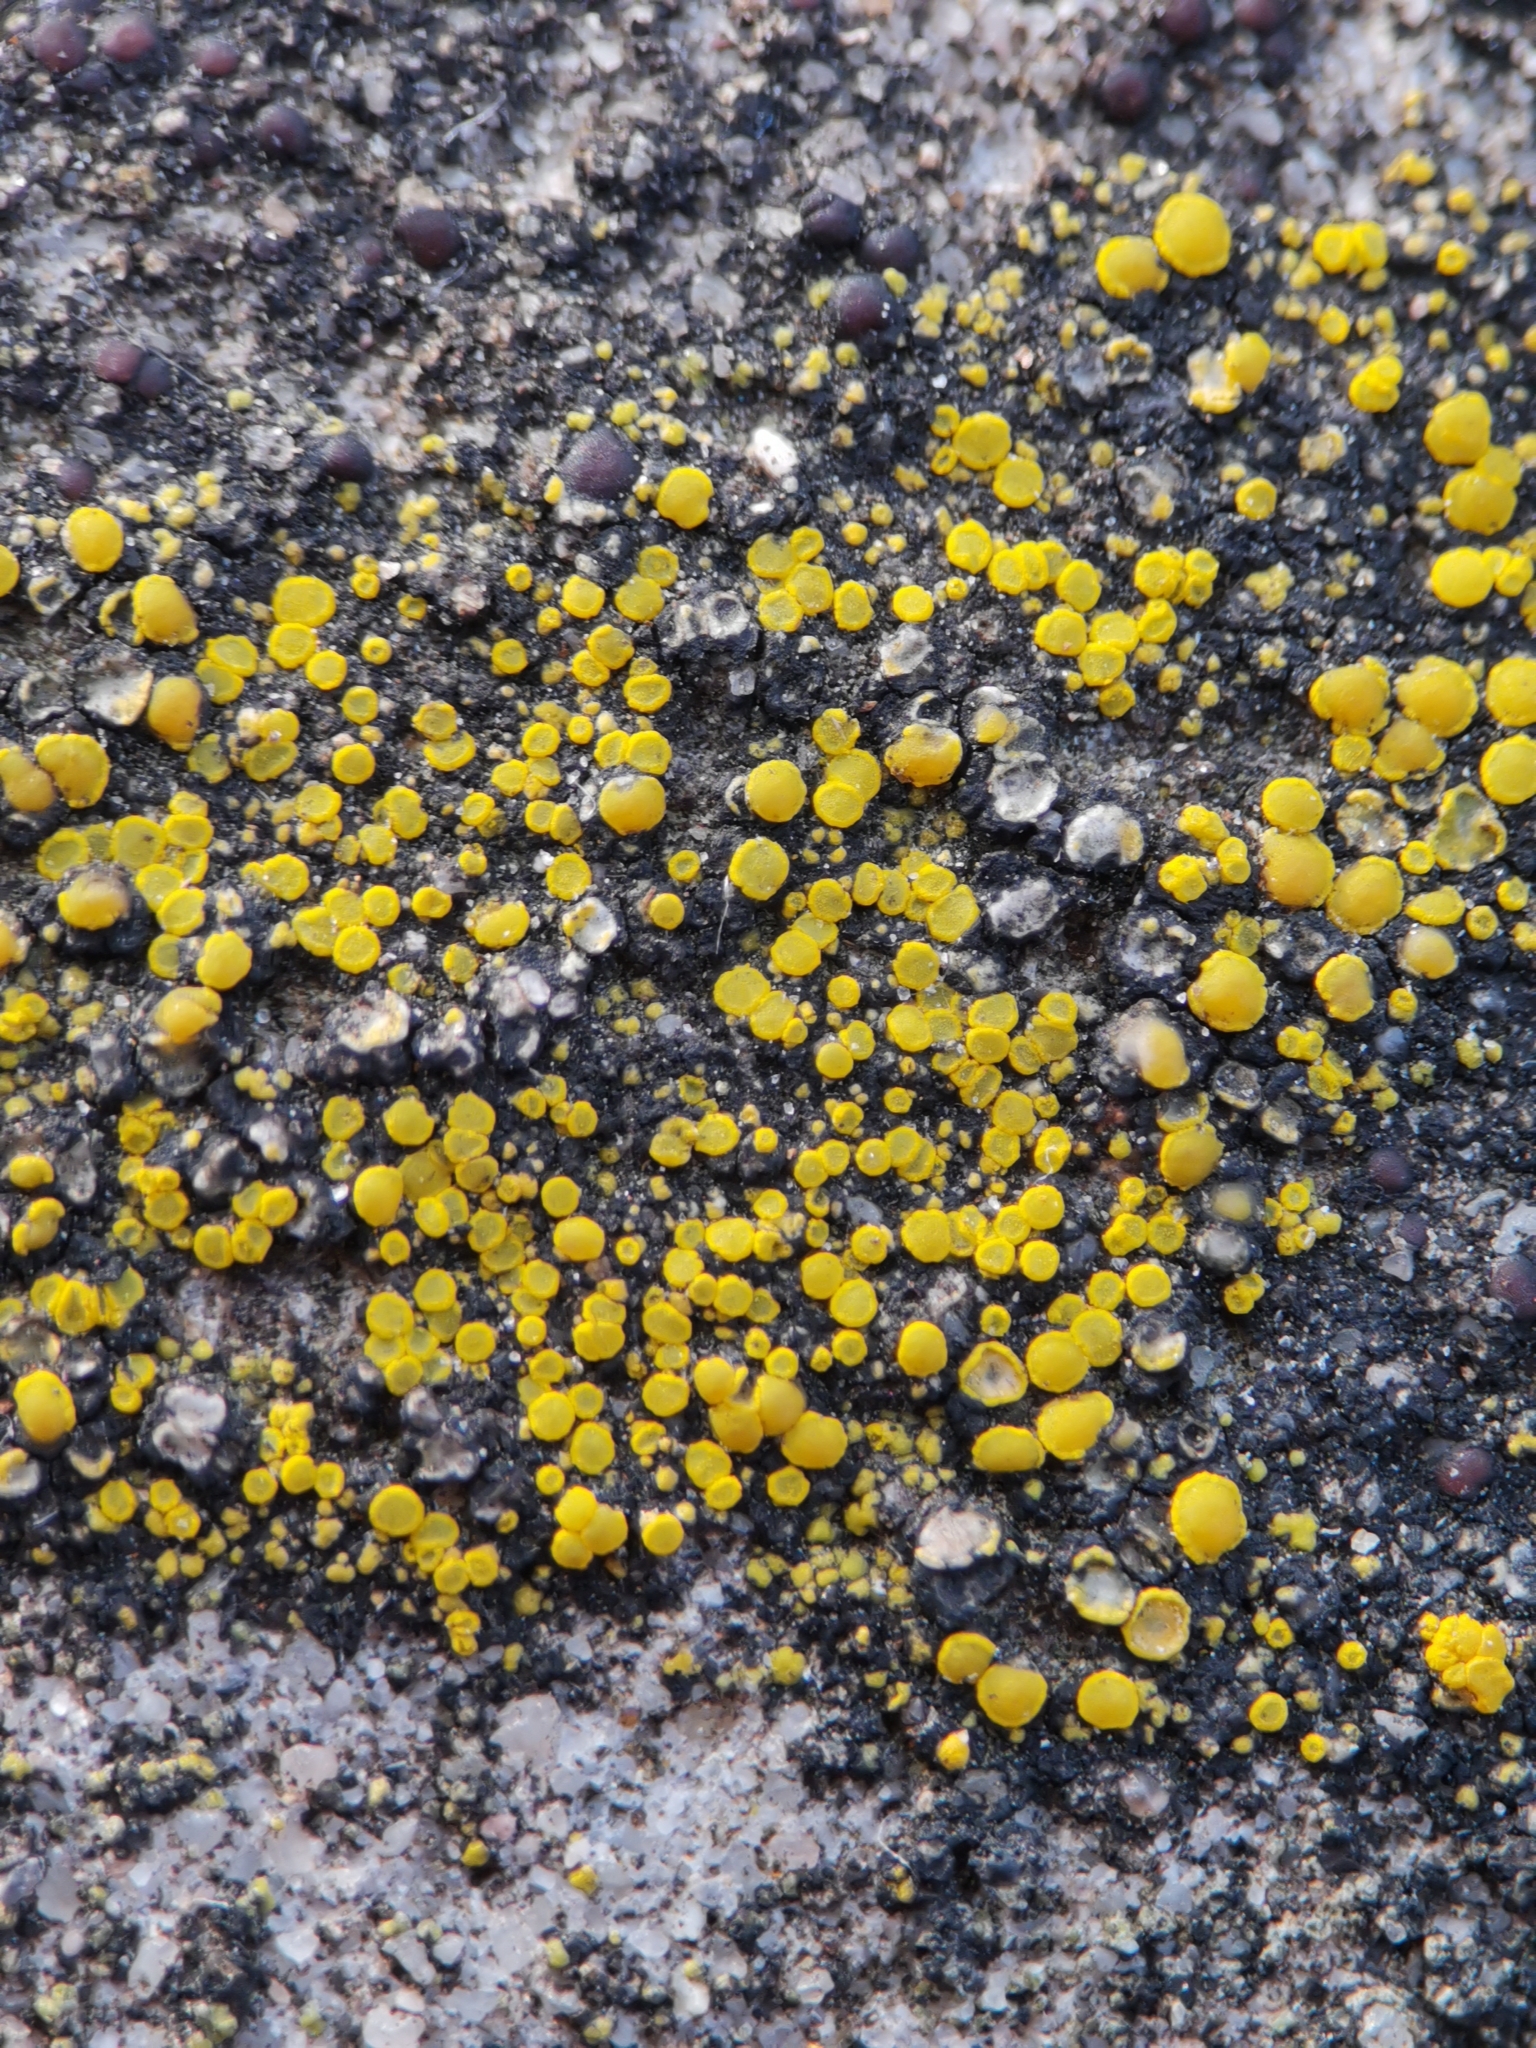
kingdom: Fungi
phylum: Ascomycota
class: Candelariomycetes
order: Candelariales
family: Candelariaceae
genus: Candelariella
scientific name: Candelariella aurella
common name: Hidden goldspeck lichen
